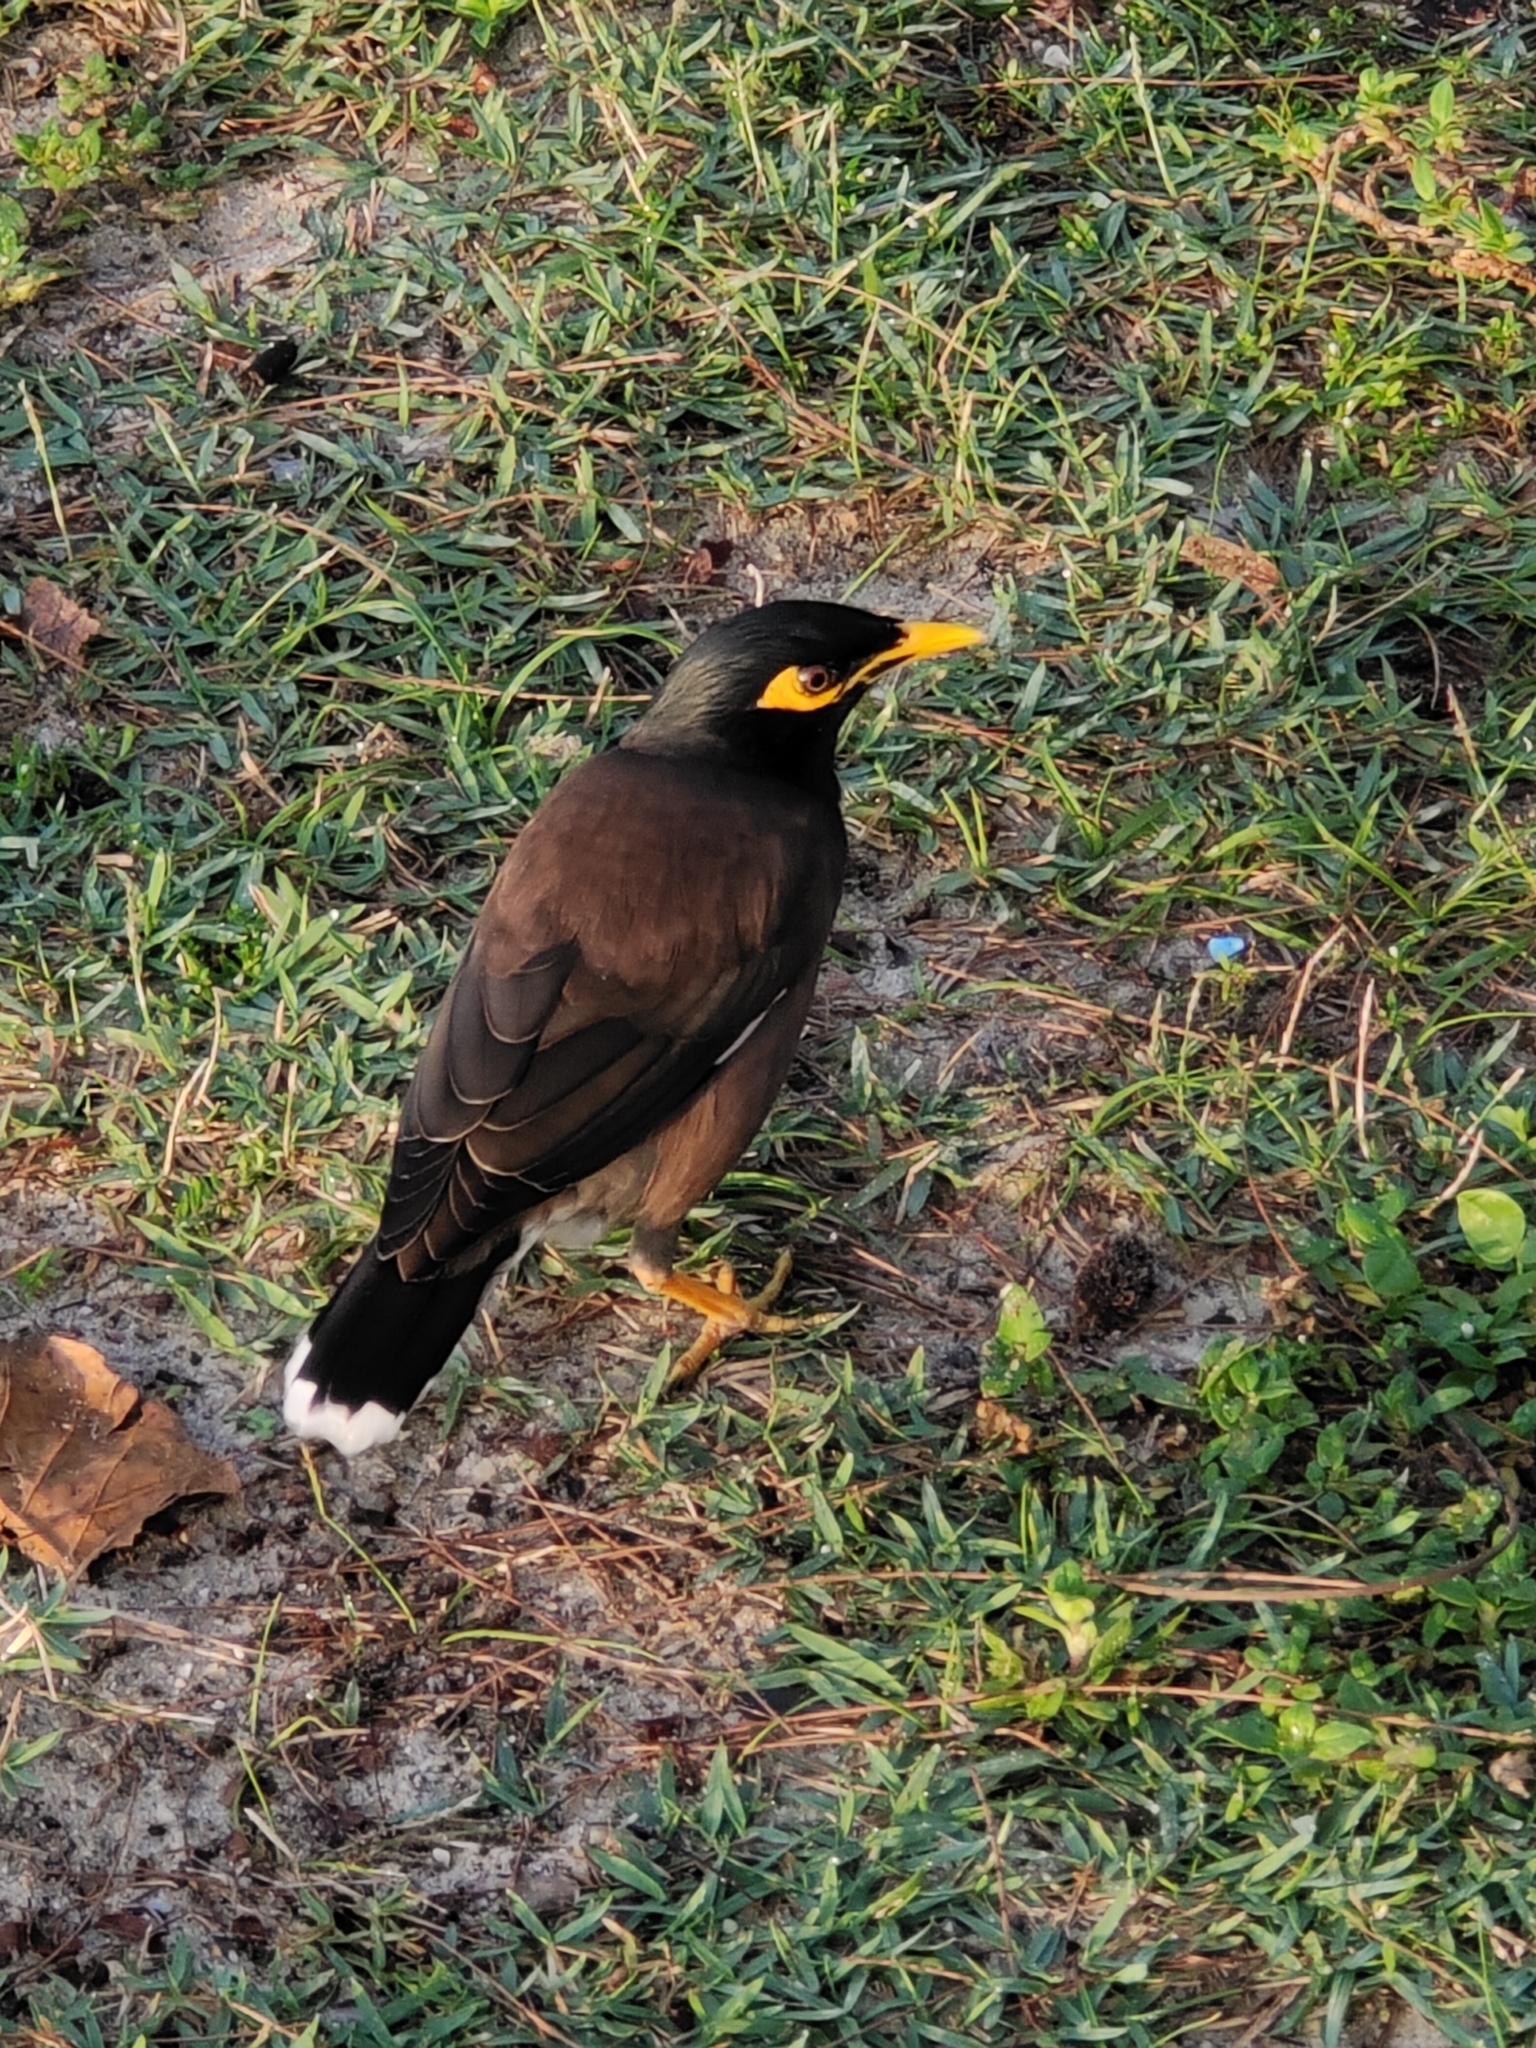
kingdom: Animalia
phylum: Chordata
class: Aves
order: Passeriformes
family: Sturnidae
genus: Acridotheres
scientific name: Acridotheres tristis
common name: Common myna
